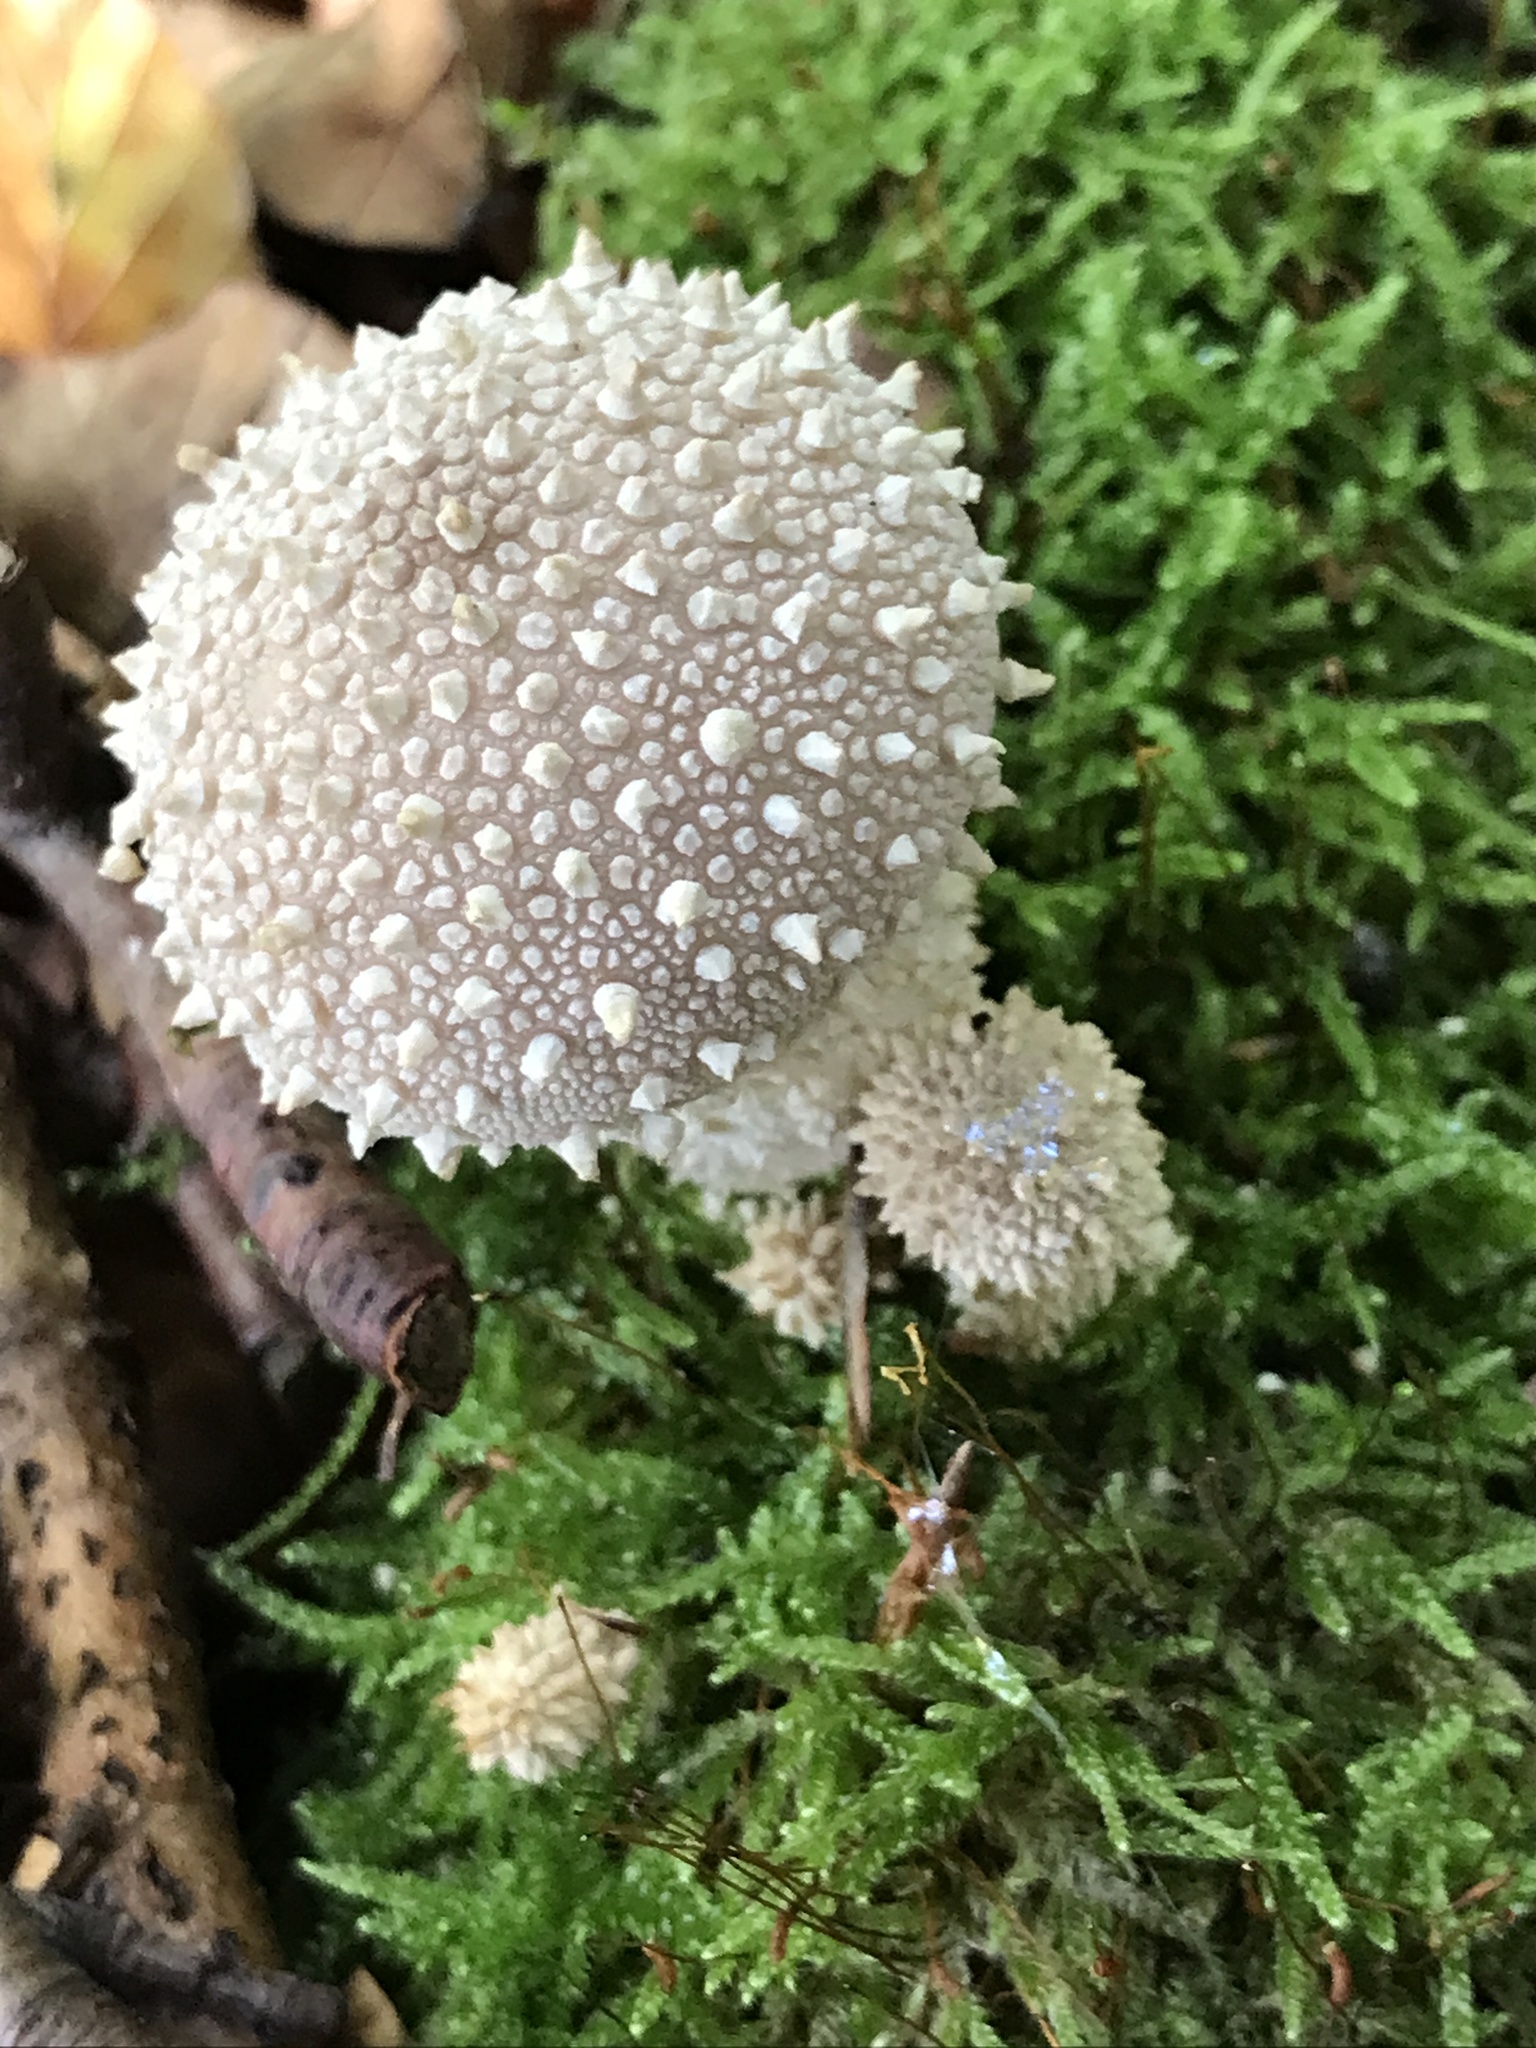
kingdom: Fungi
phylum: Basidiomycota
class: Agaricomycetes
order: Agaricales
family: Lycoperdaceae
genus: Lycoperdon
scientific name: Lycoperdon perlatum
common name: Common puffball
